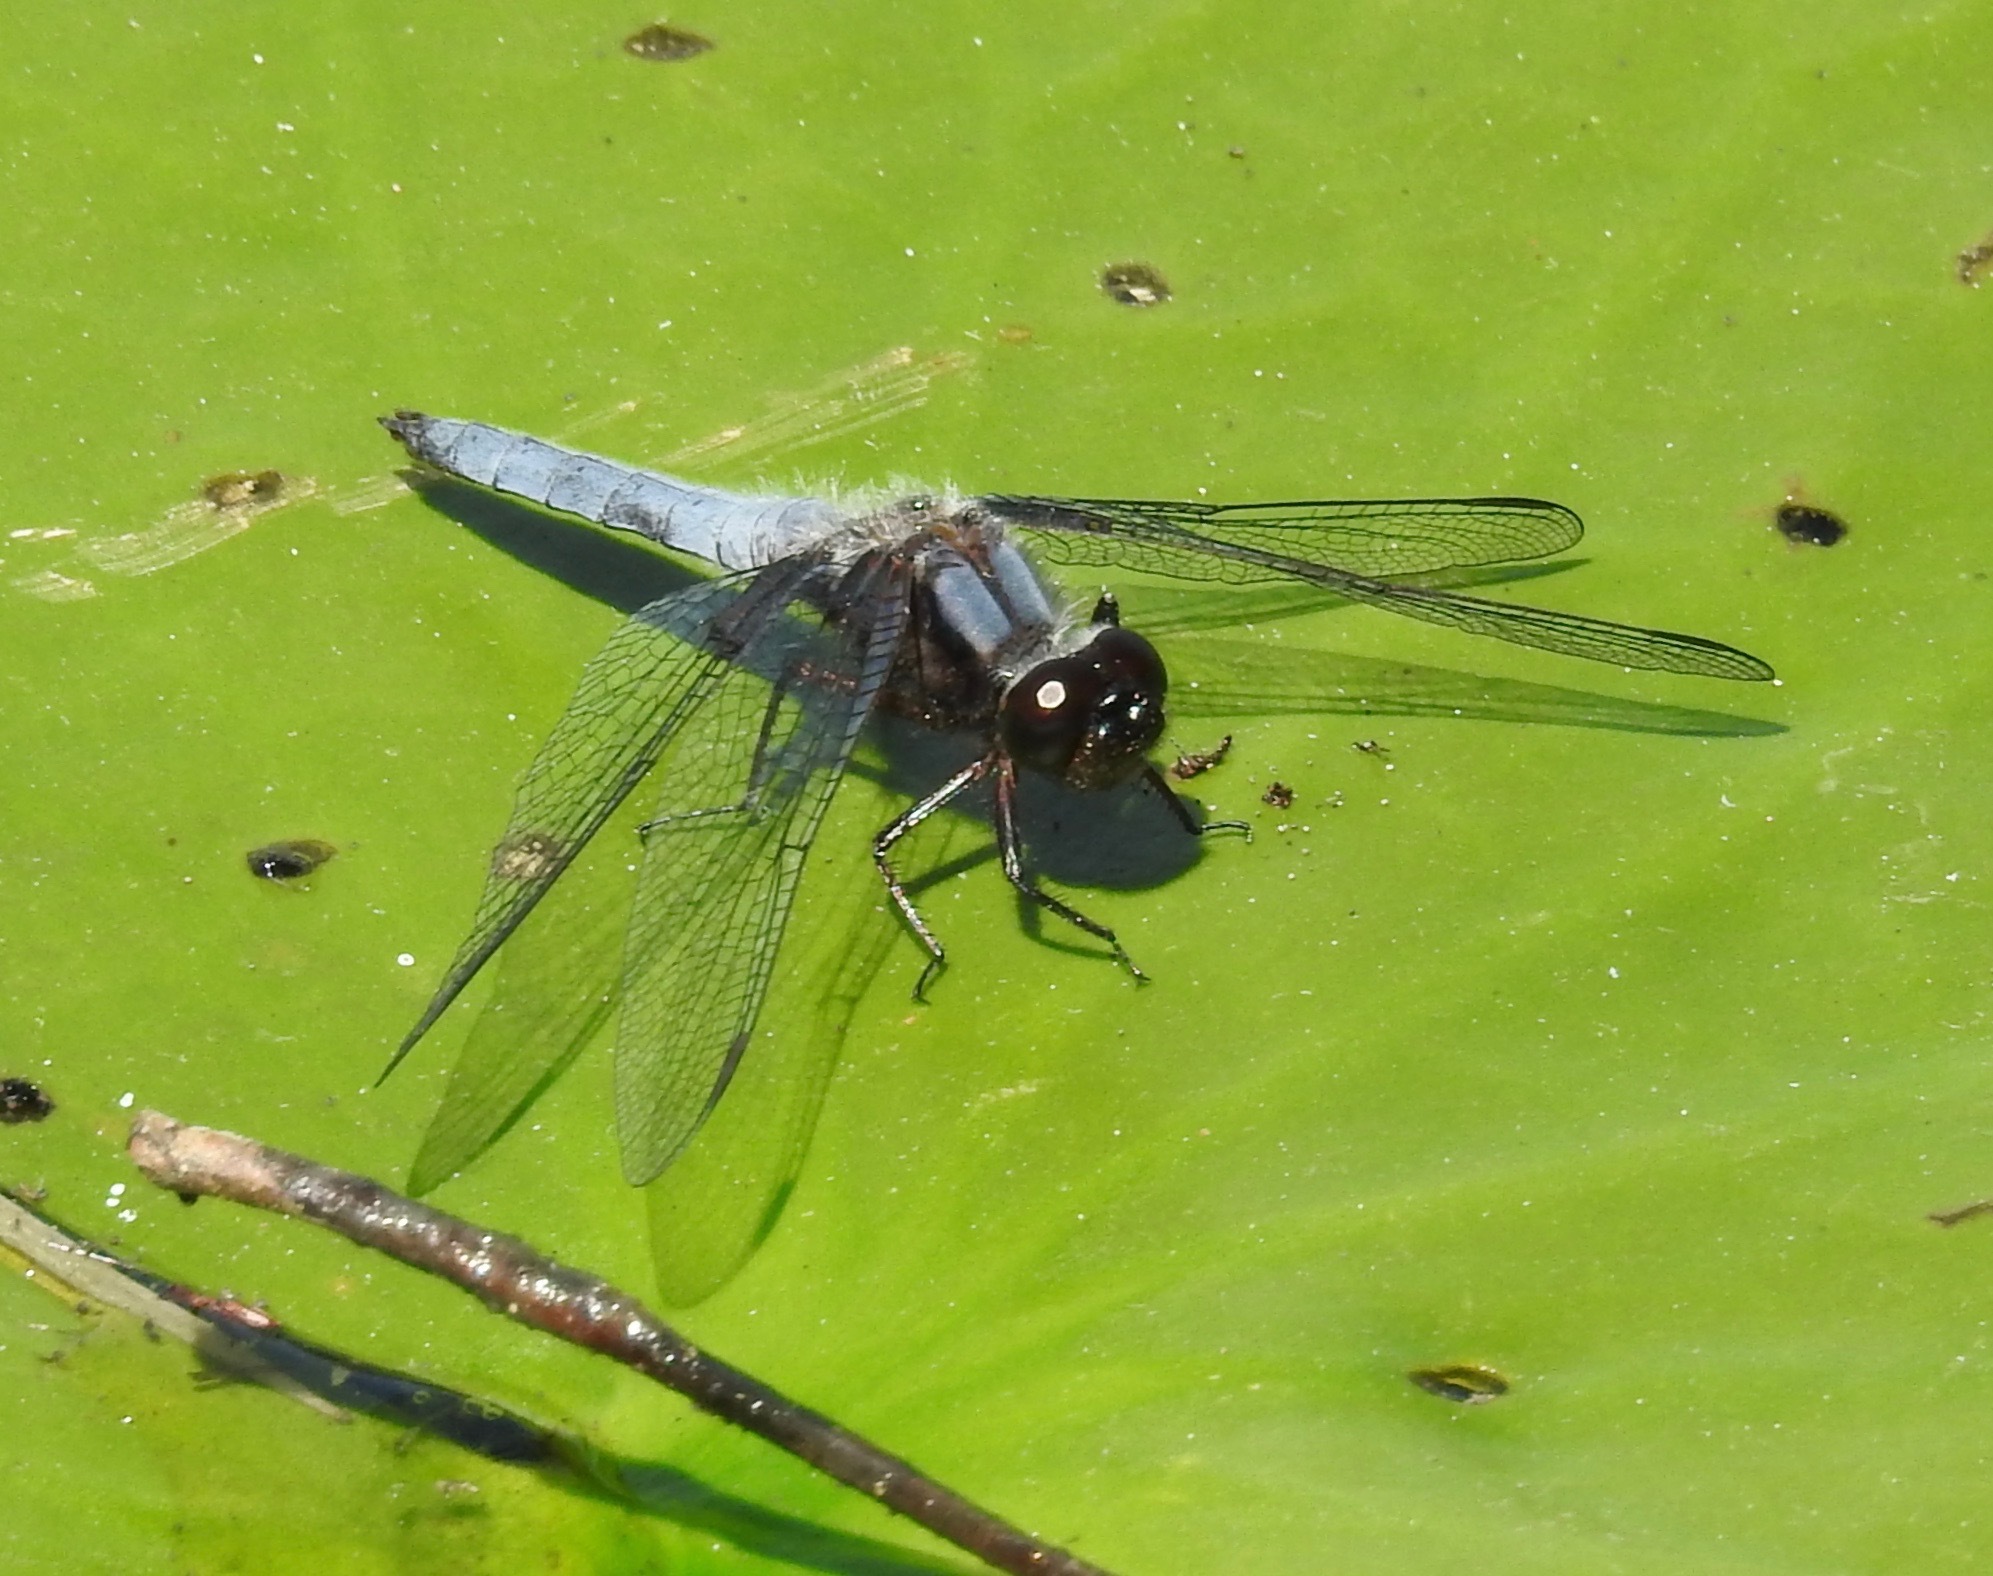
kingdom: Animalia
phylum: Arthropoda
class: Insecta
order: Odonata
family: Libellulidae
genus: Ladona
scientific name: Ladona deplanata
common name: Blue corporal
